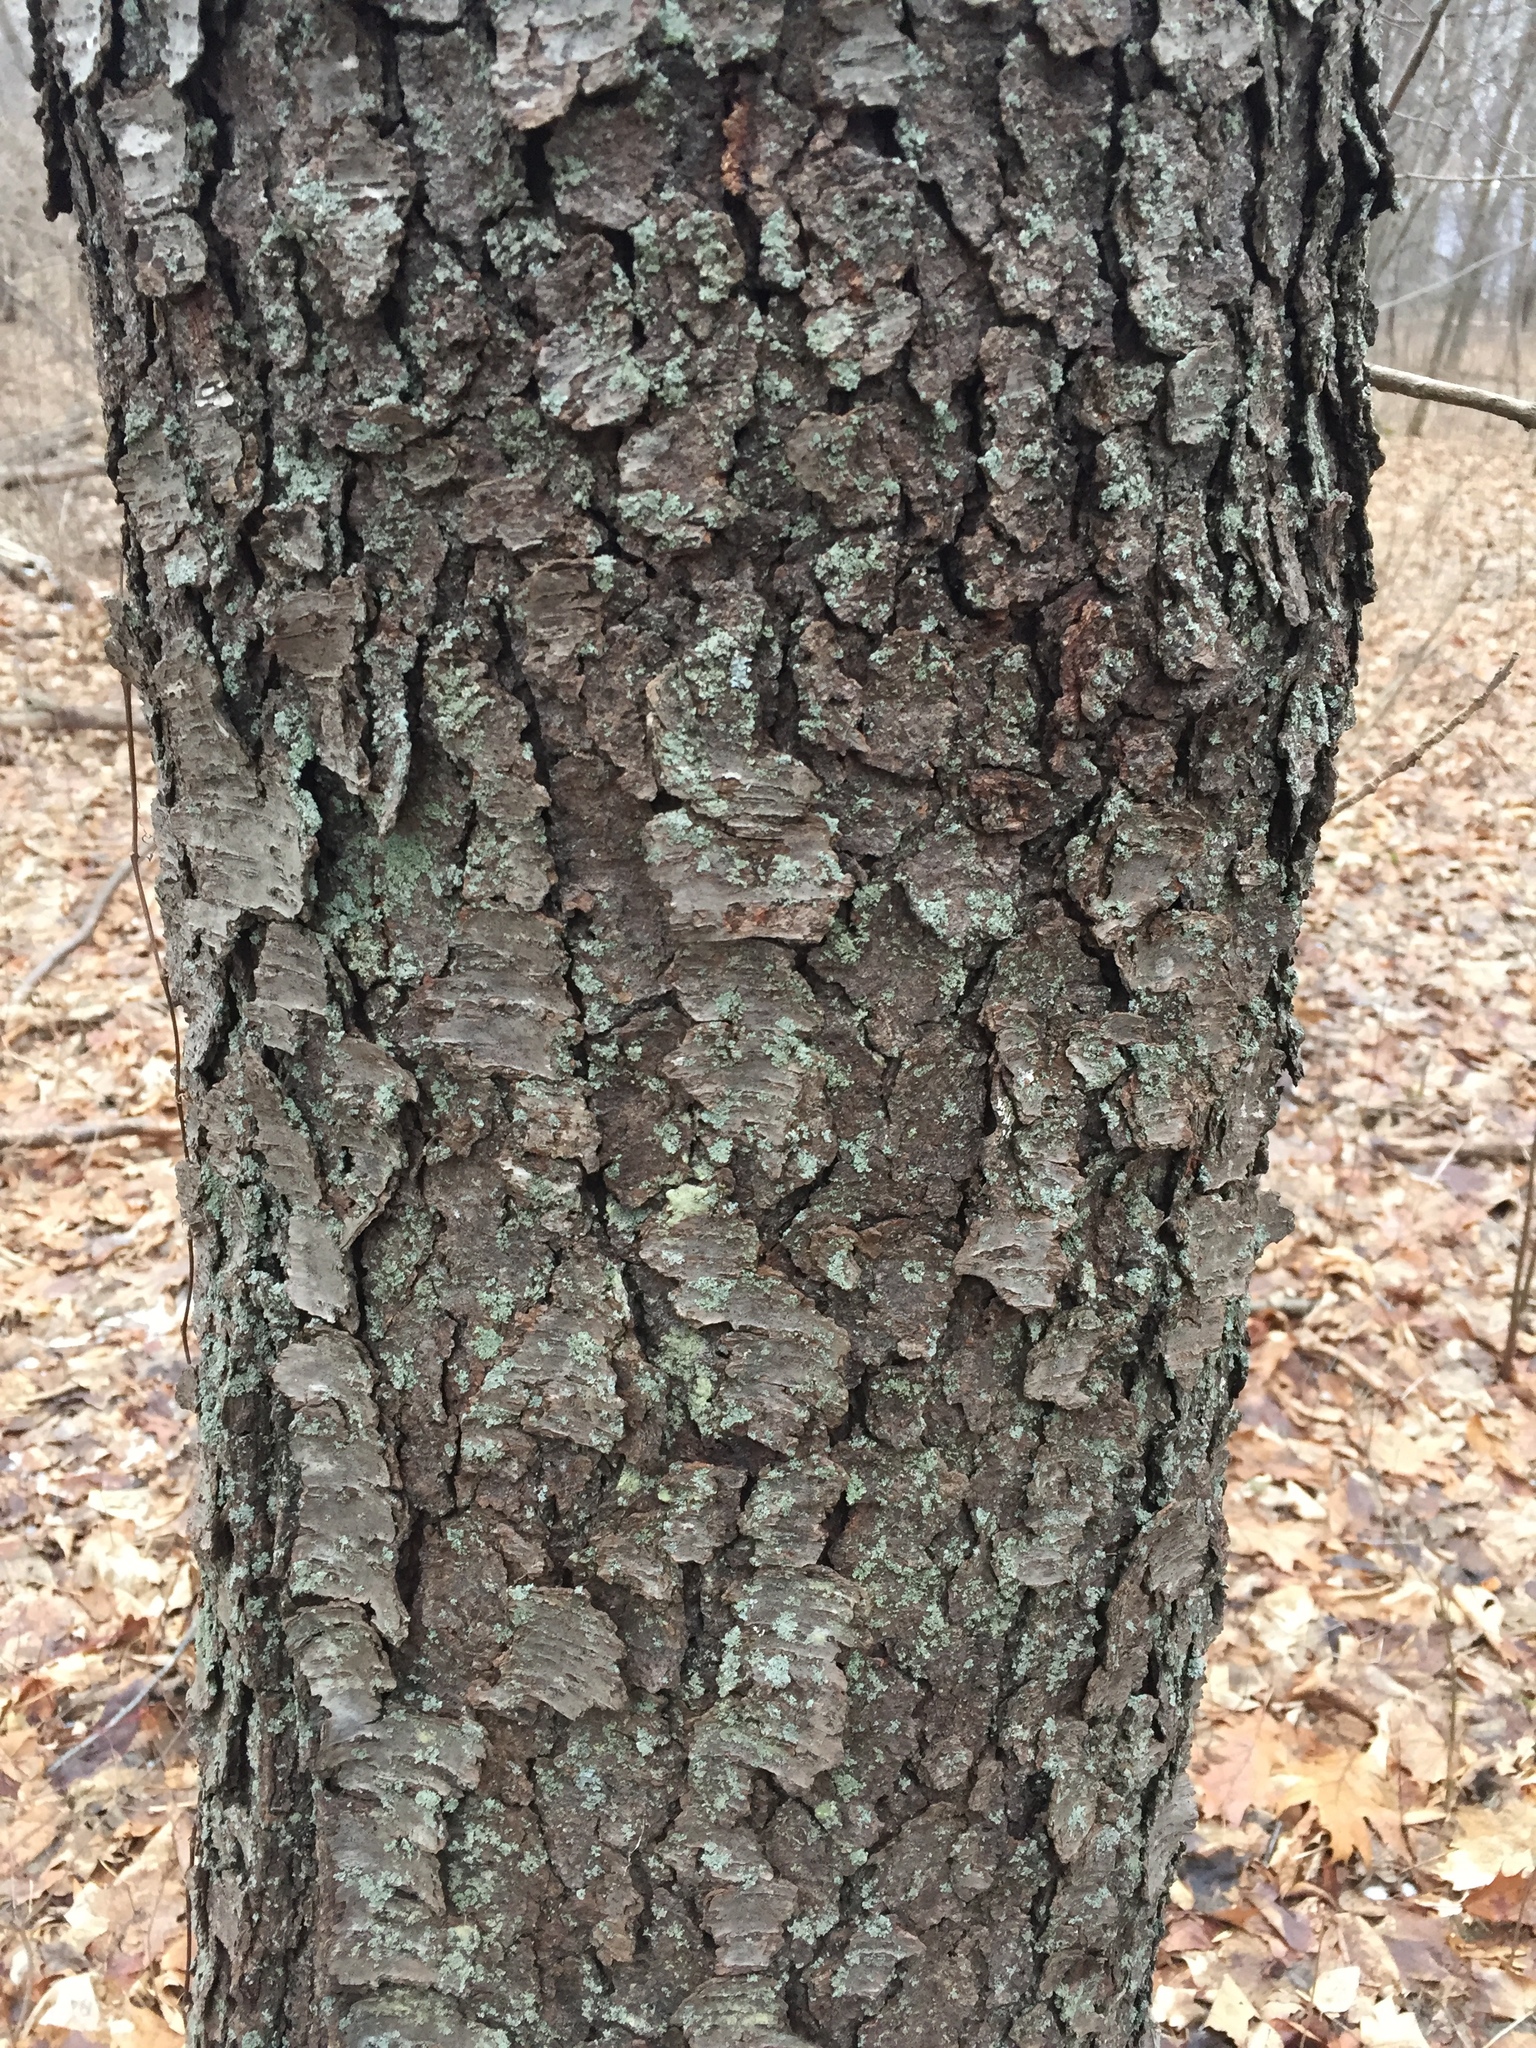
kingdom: Plantae
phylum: Tracheophyta
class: Magnoliopsida
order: Rosales
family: Rosaceae
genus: Prunus
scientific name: Prunus serotina
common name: Black cherry
